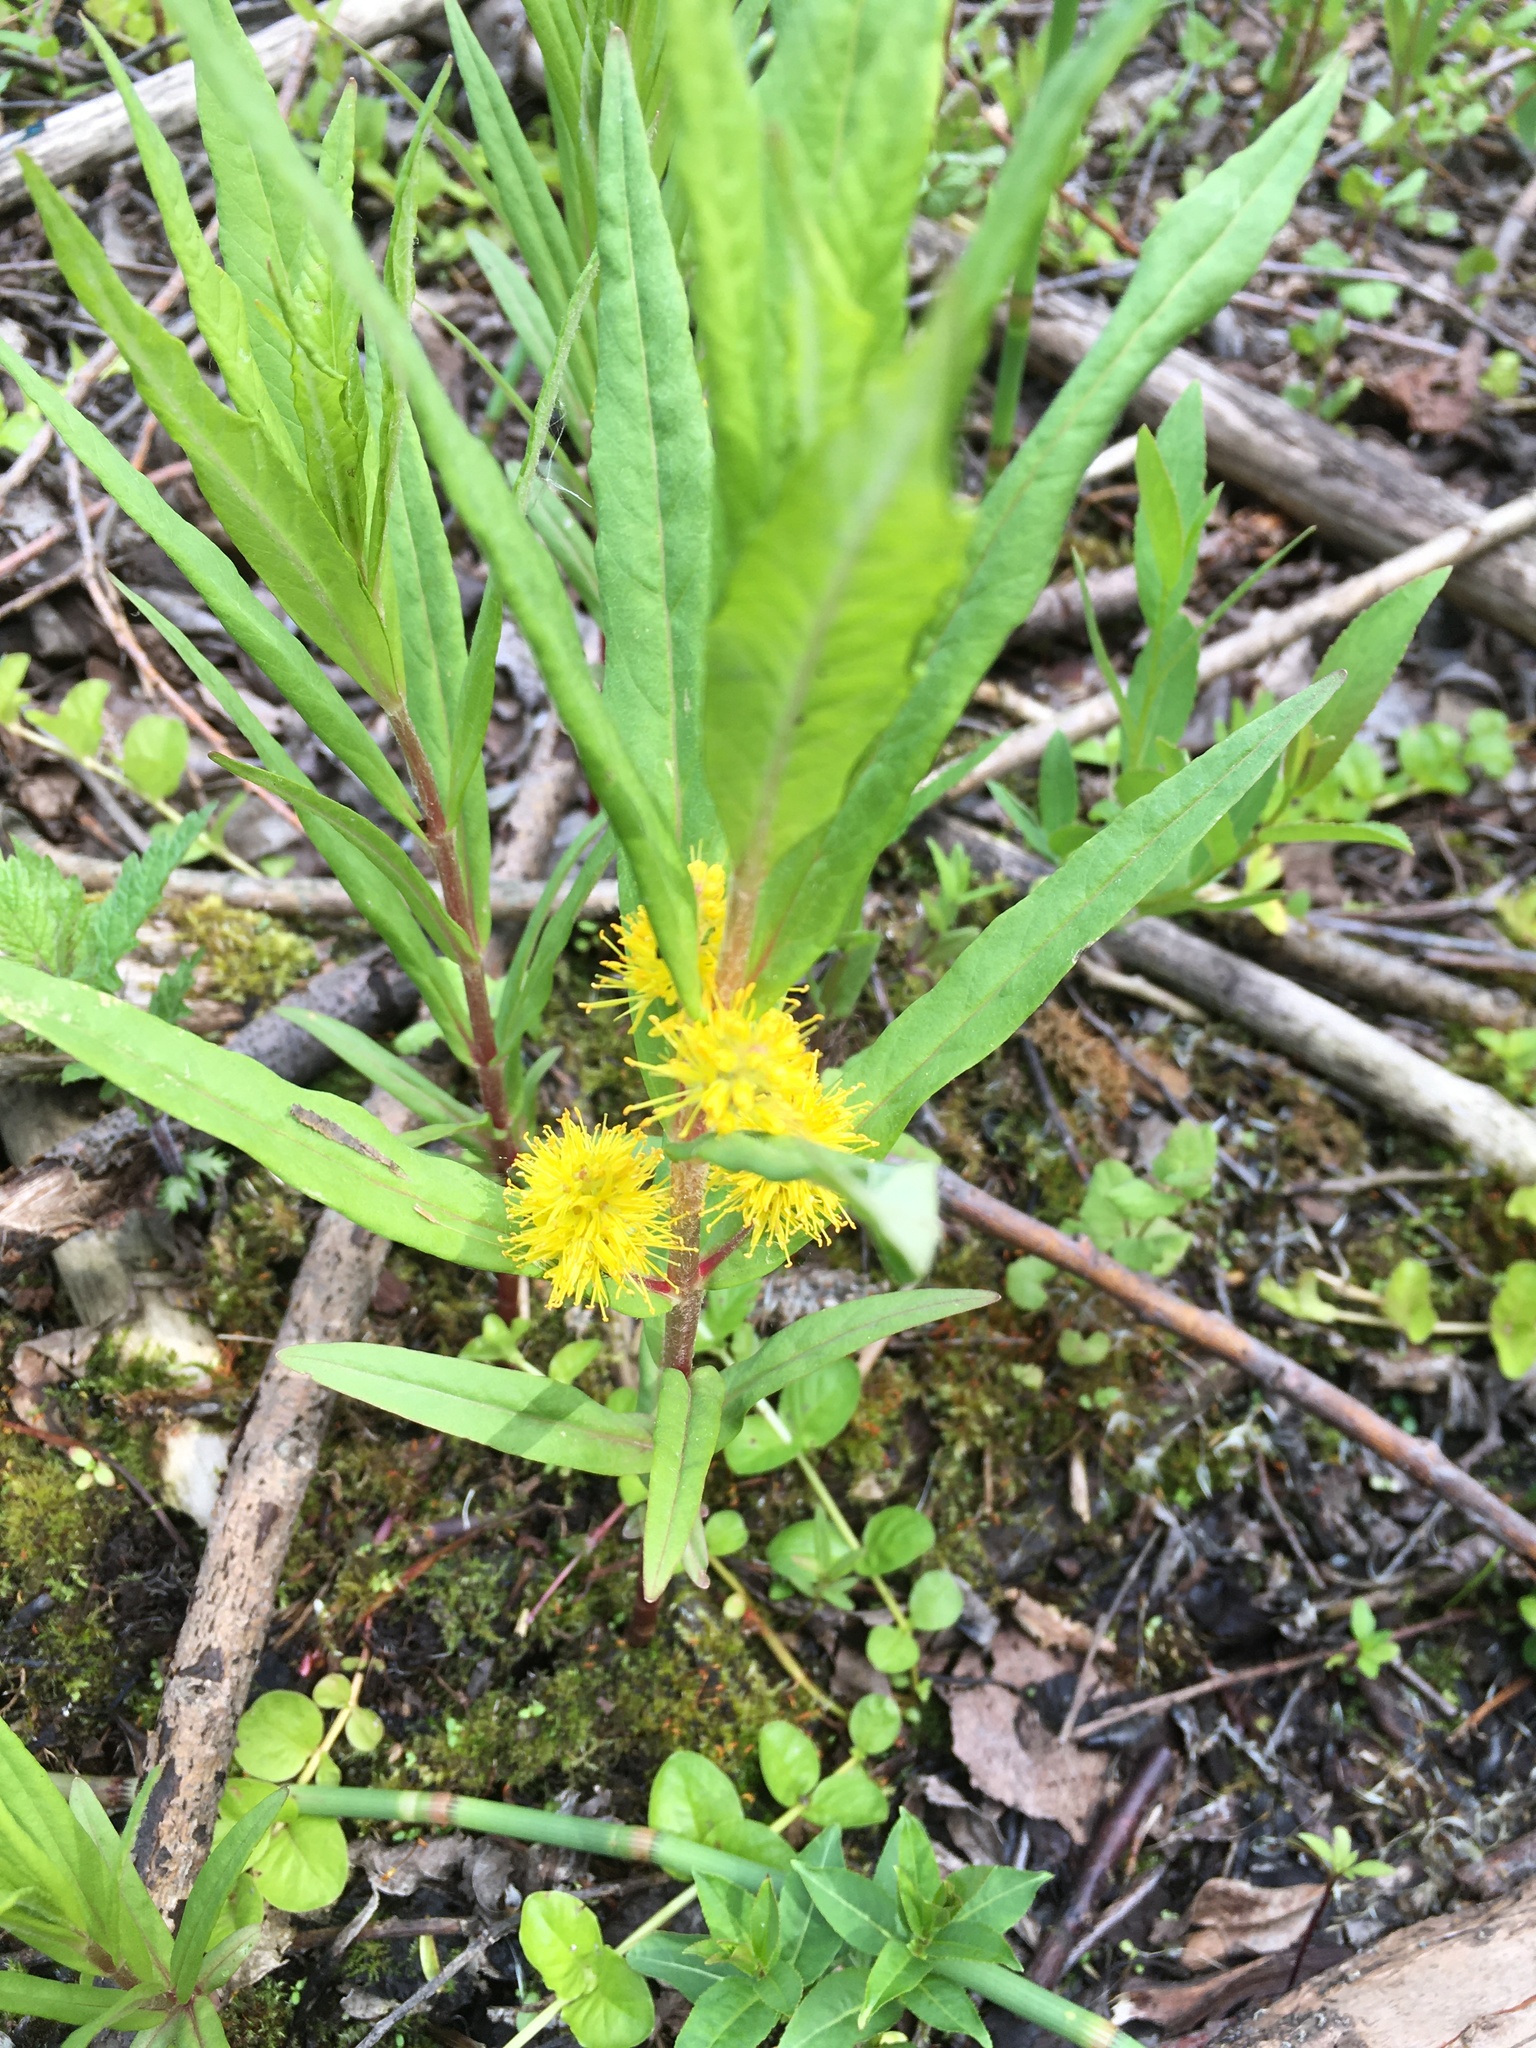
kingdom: Plantae
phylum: Tracheophyta
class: Magnoliopsida
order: Ericales
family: Primulaceae
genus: Lysimachia
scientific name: Lysimachia thyrsiflora
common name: Tufted loosestrife
